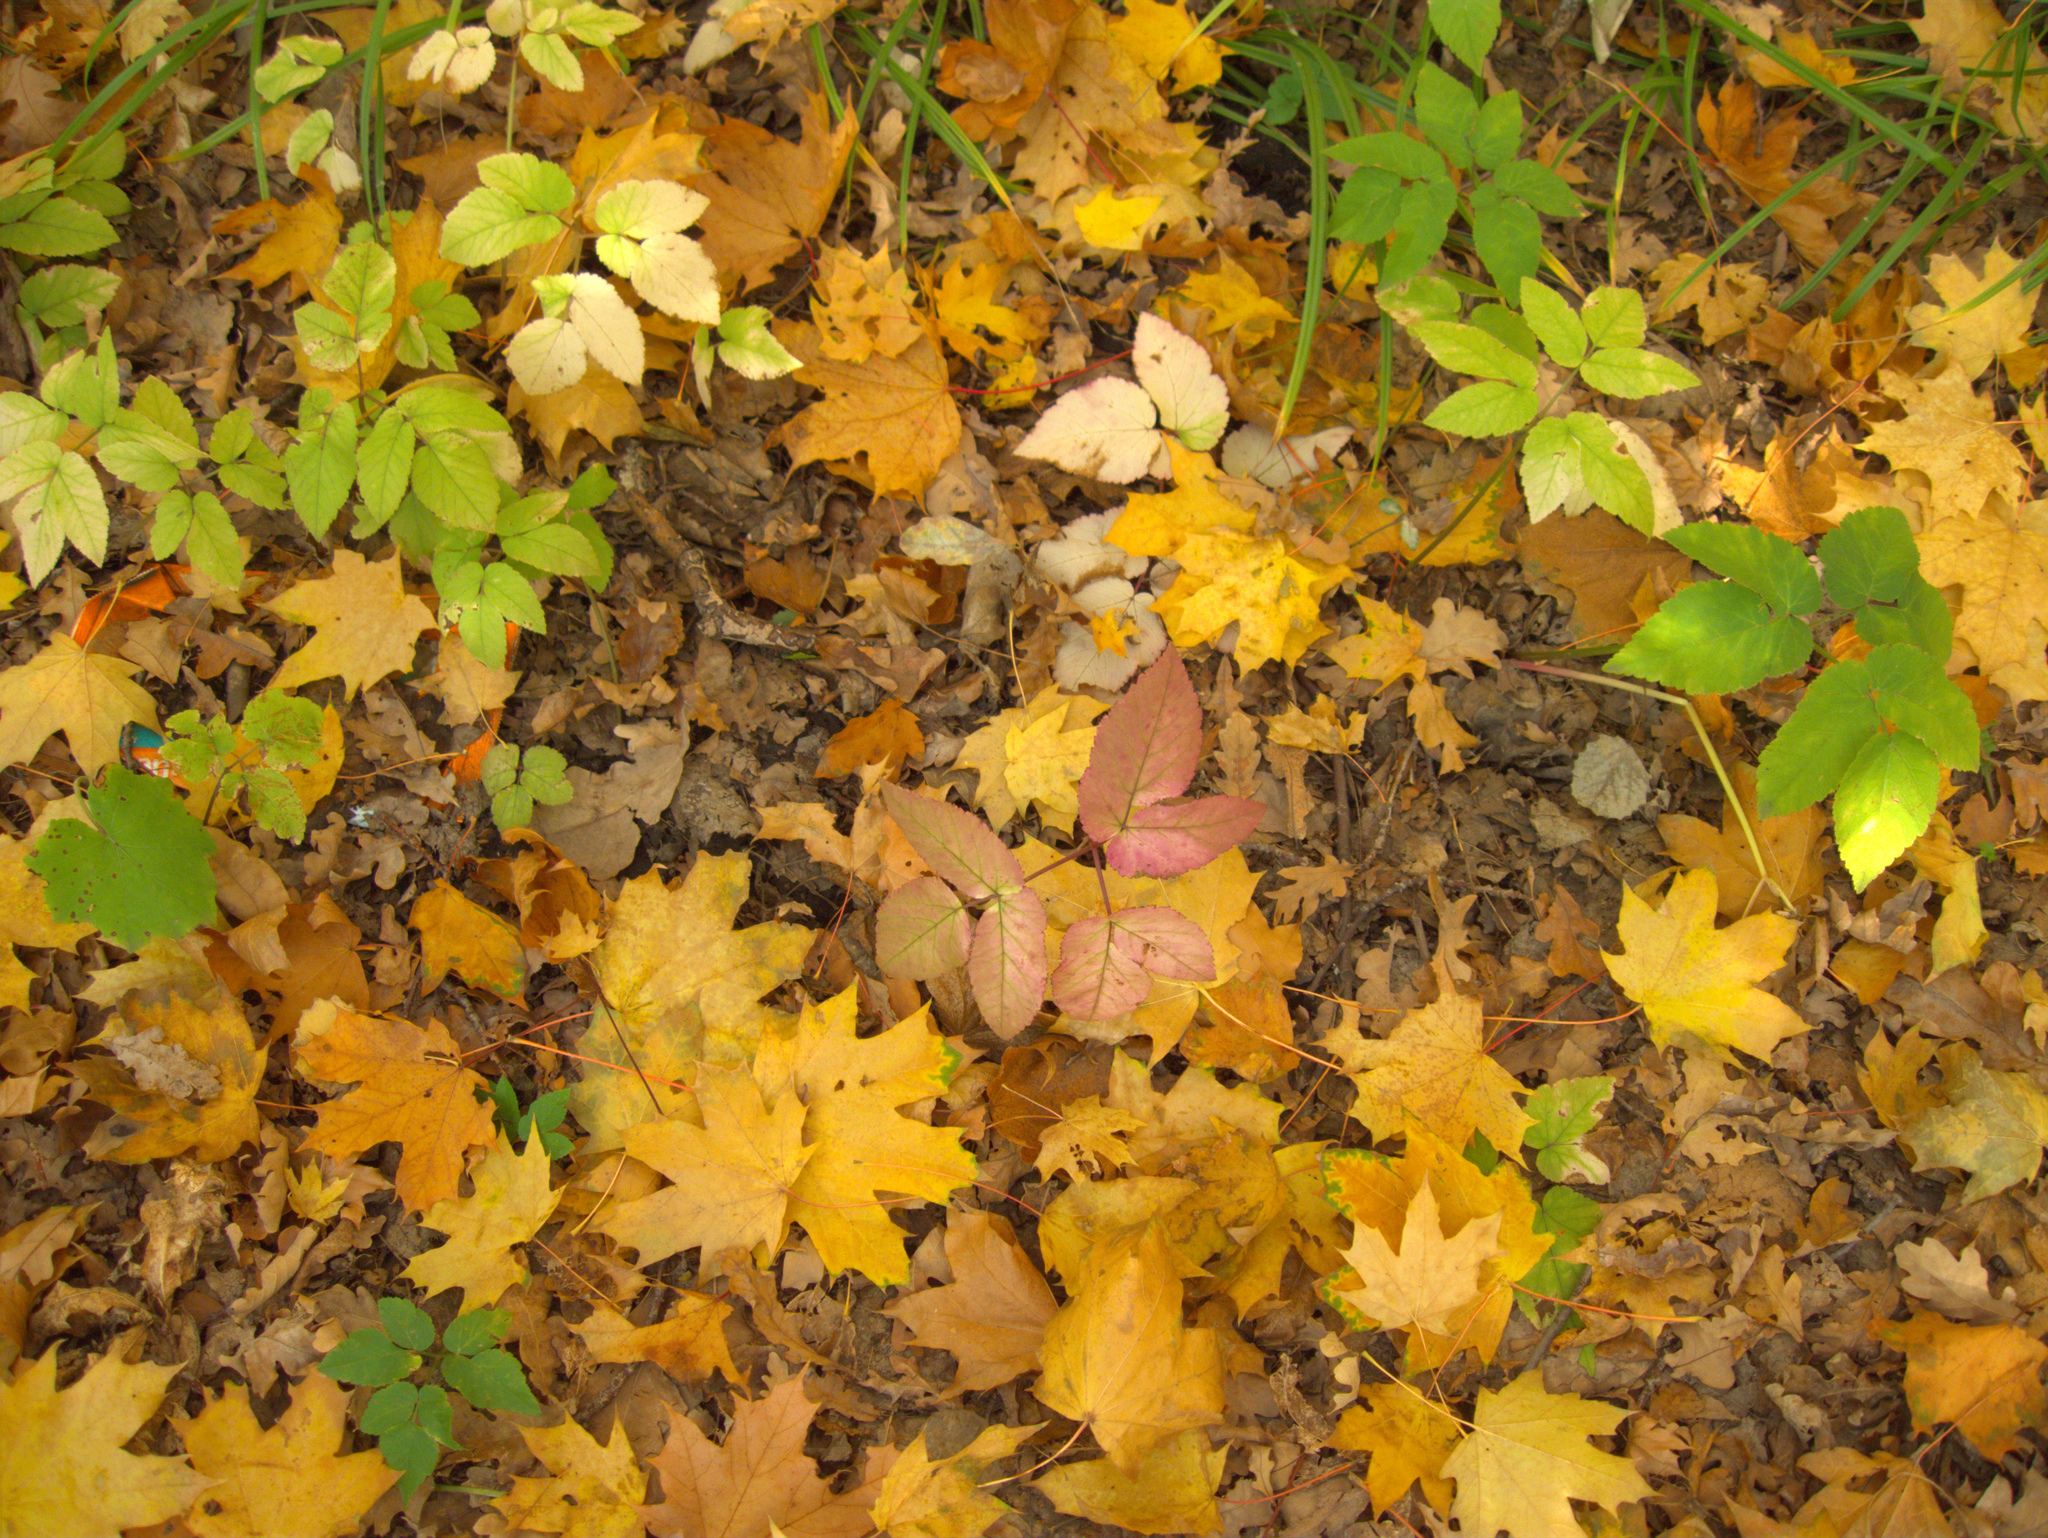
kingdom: Plantae
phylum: Tracheophyta
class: Magnoliopsida
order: Apiales
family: Apiaceae
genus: Aegopodium
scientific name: Aegopodium podagraria
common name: Ground-elder
